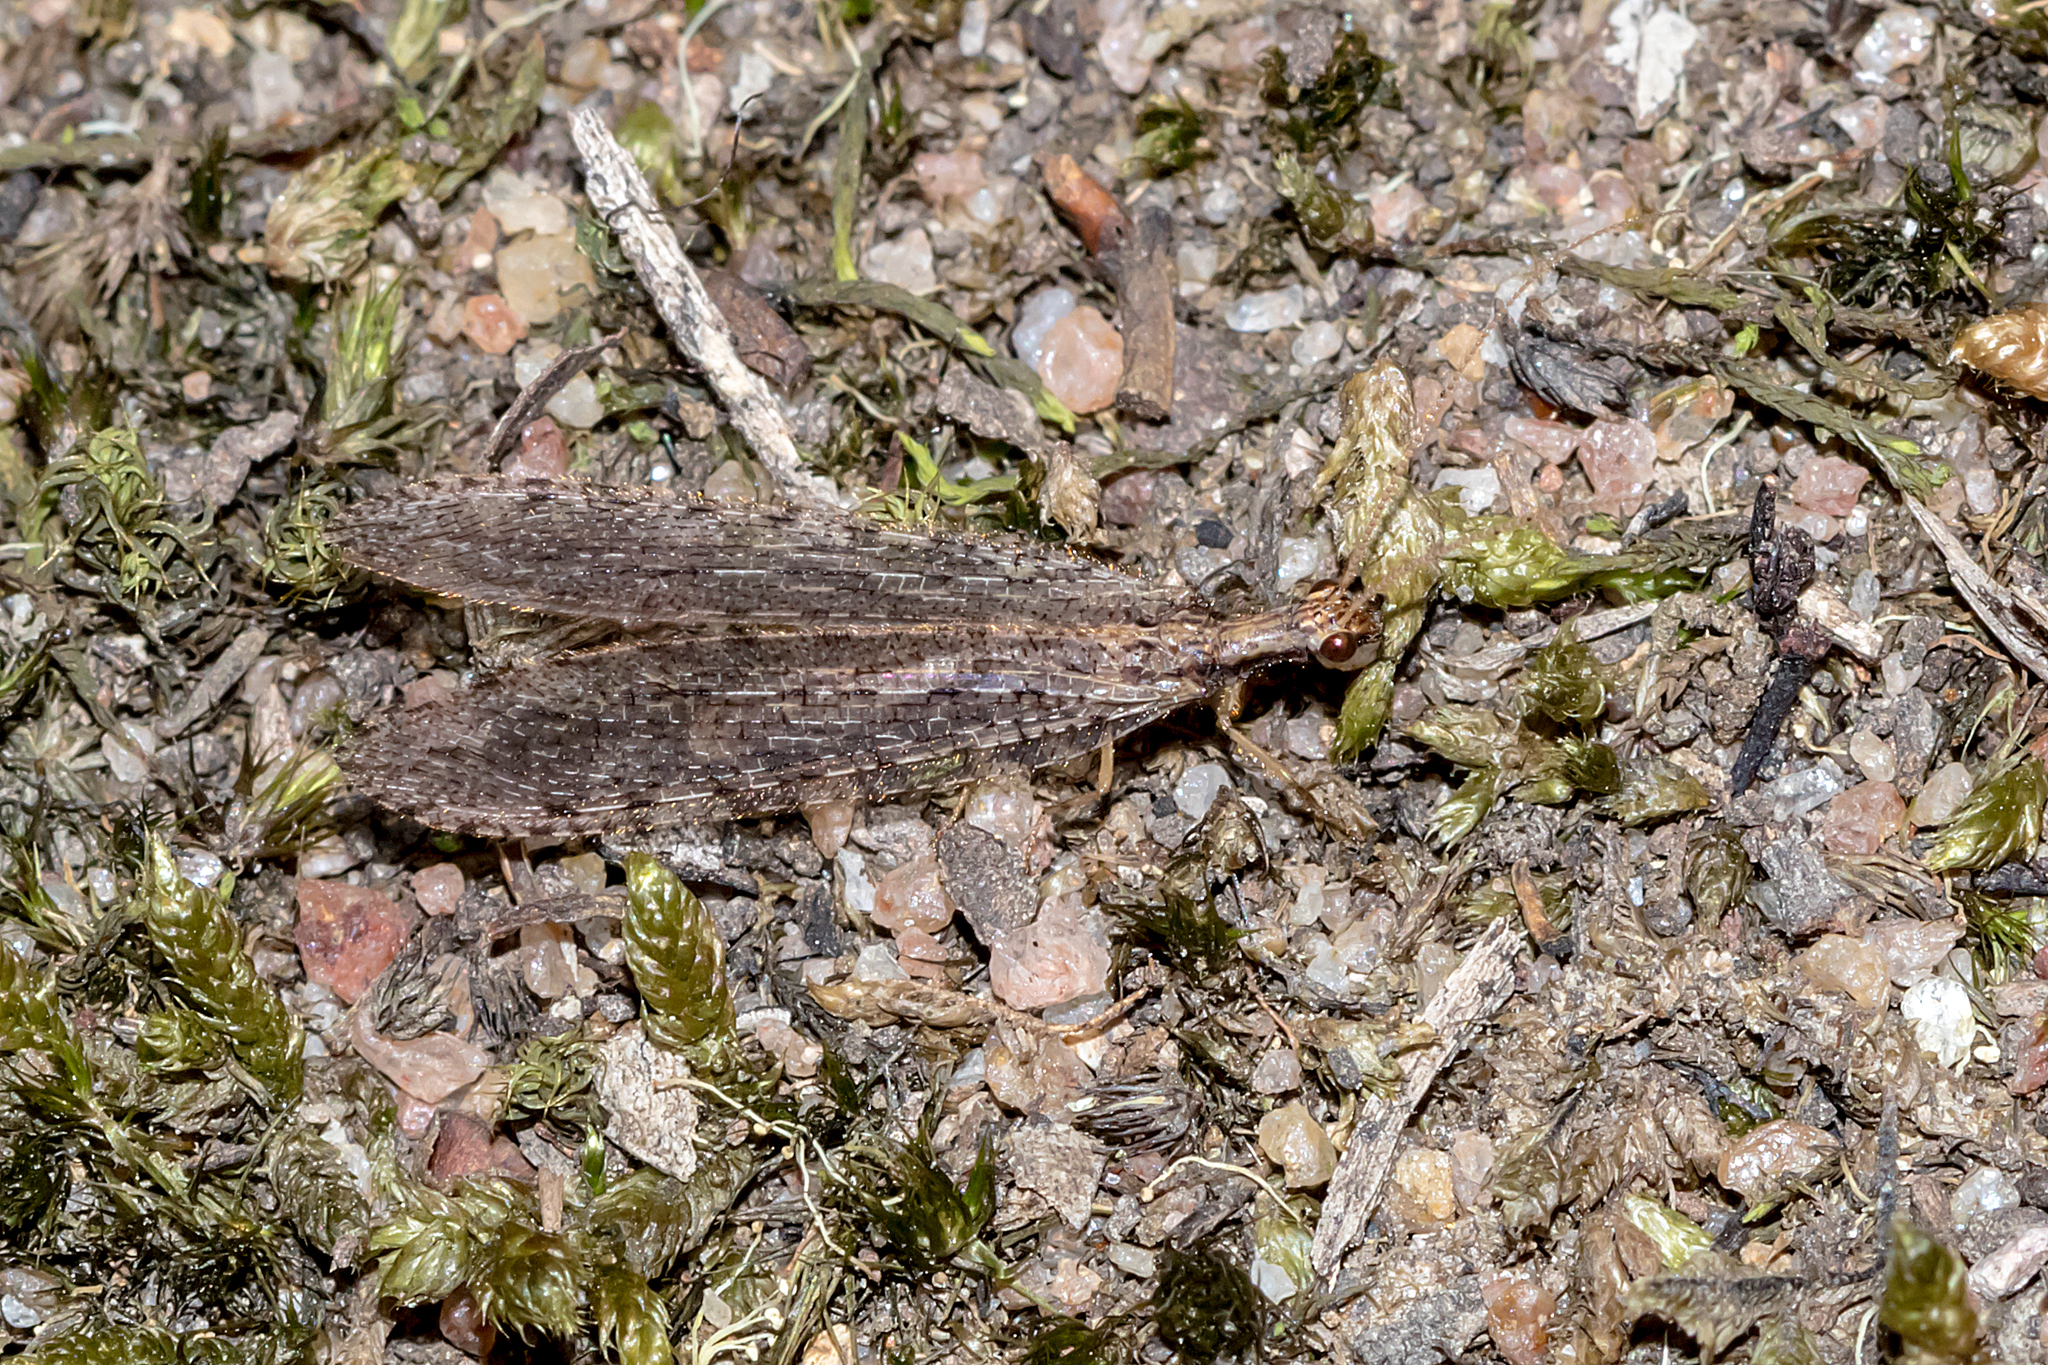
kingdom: Animalia
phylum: Arthropoda
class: Insecta
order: Neuroptera
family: Osmylidae
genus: Stenosmylus
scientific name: Stenosmylus tenuis
